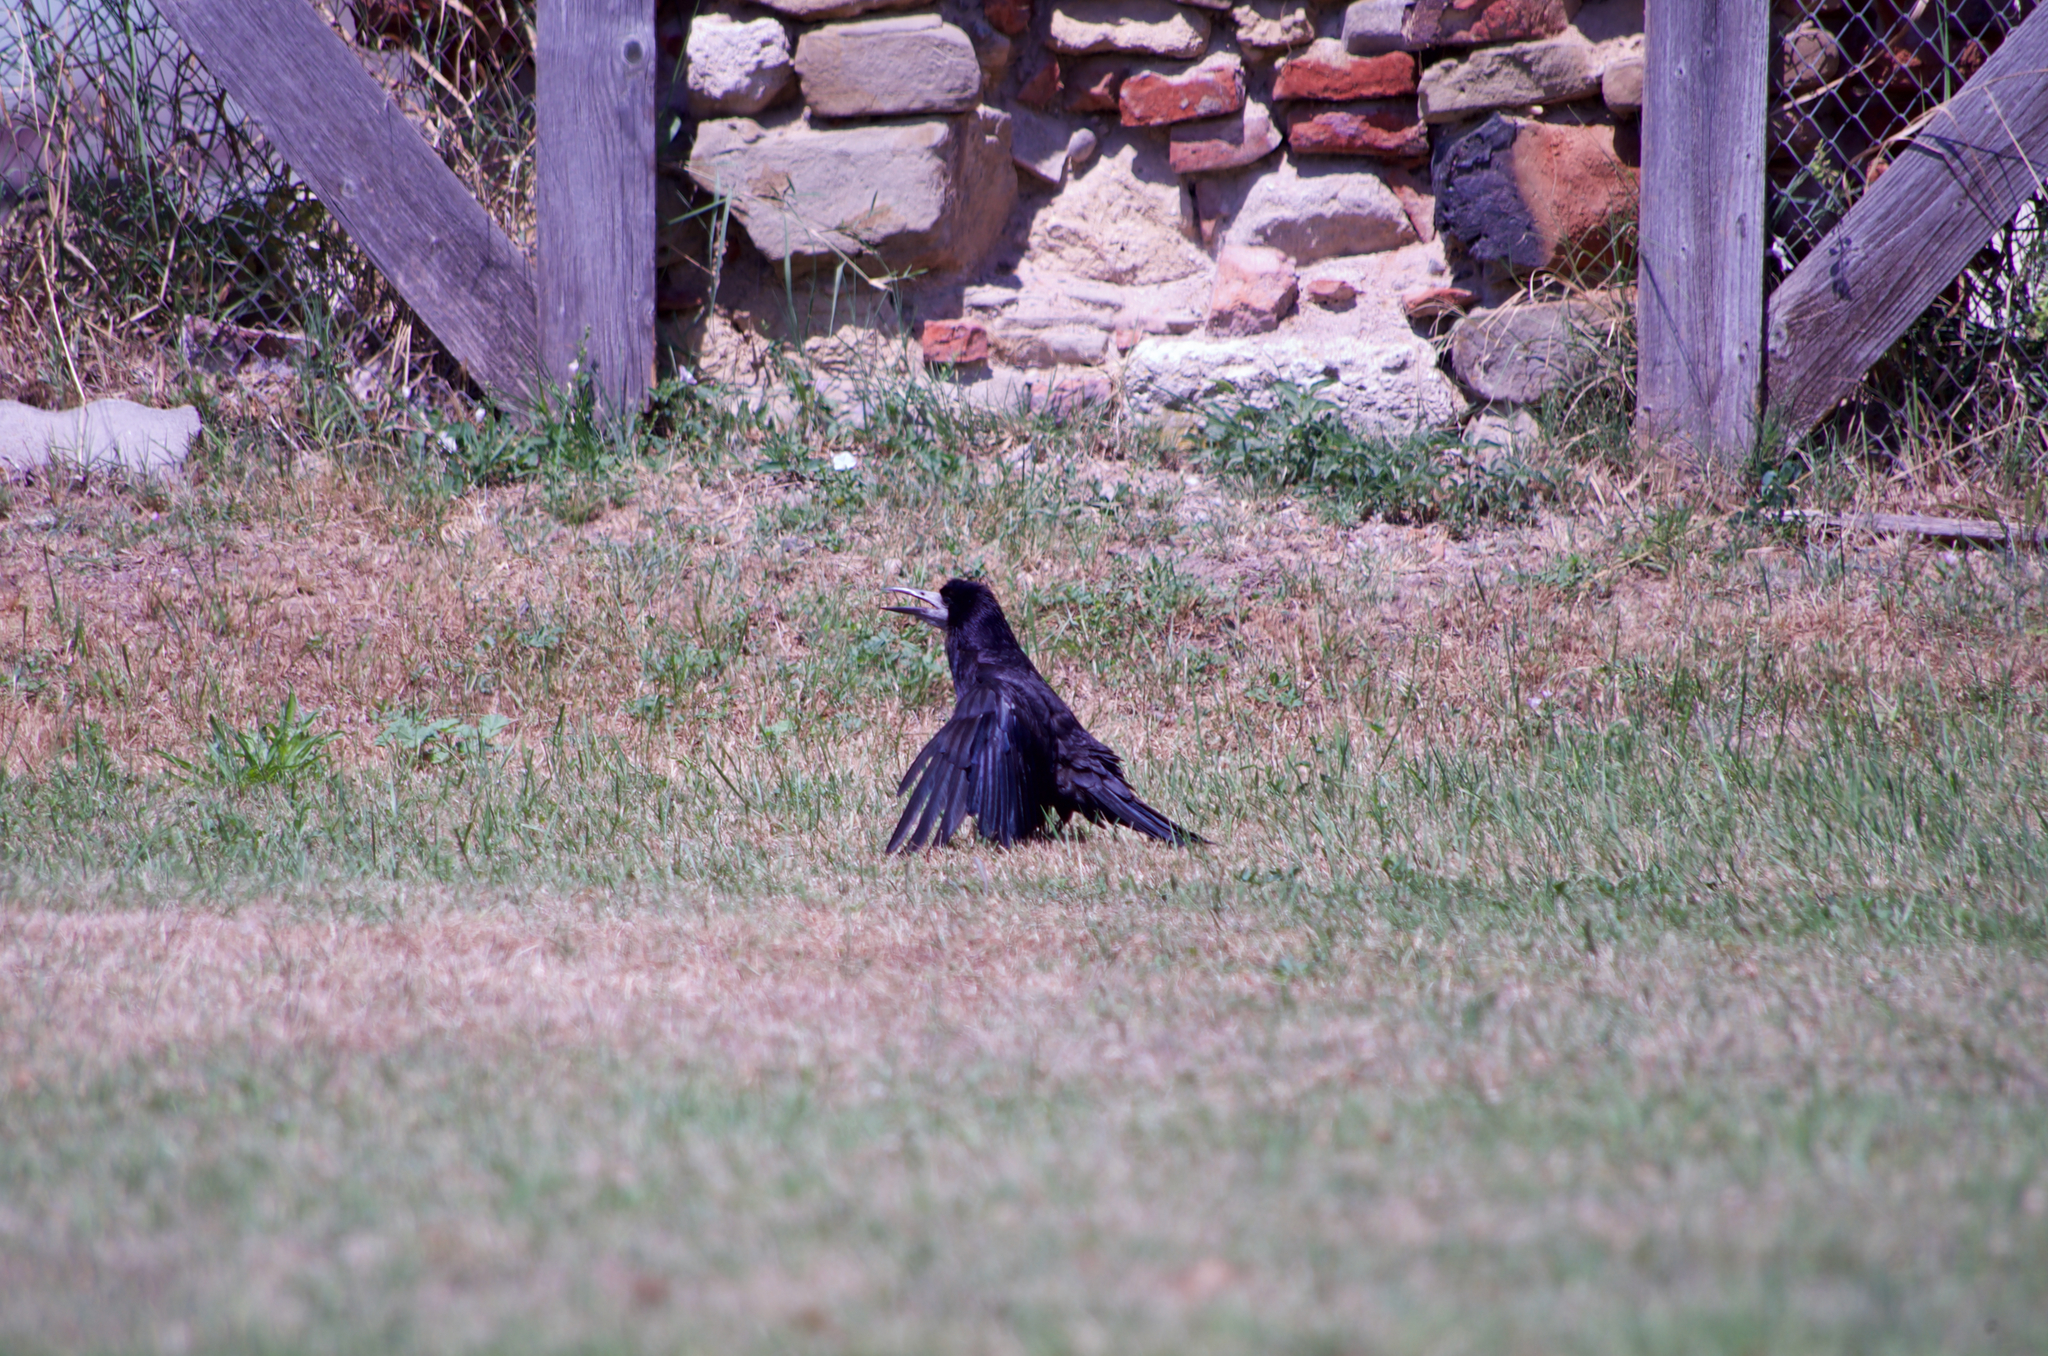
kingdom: Animalia
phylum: Chordata
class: Aves
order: Passeriformes
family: Corvidae
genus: Corvus
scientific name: Corvus frugilegus
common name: Rook
